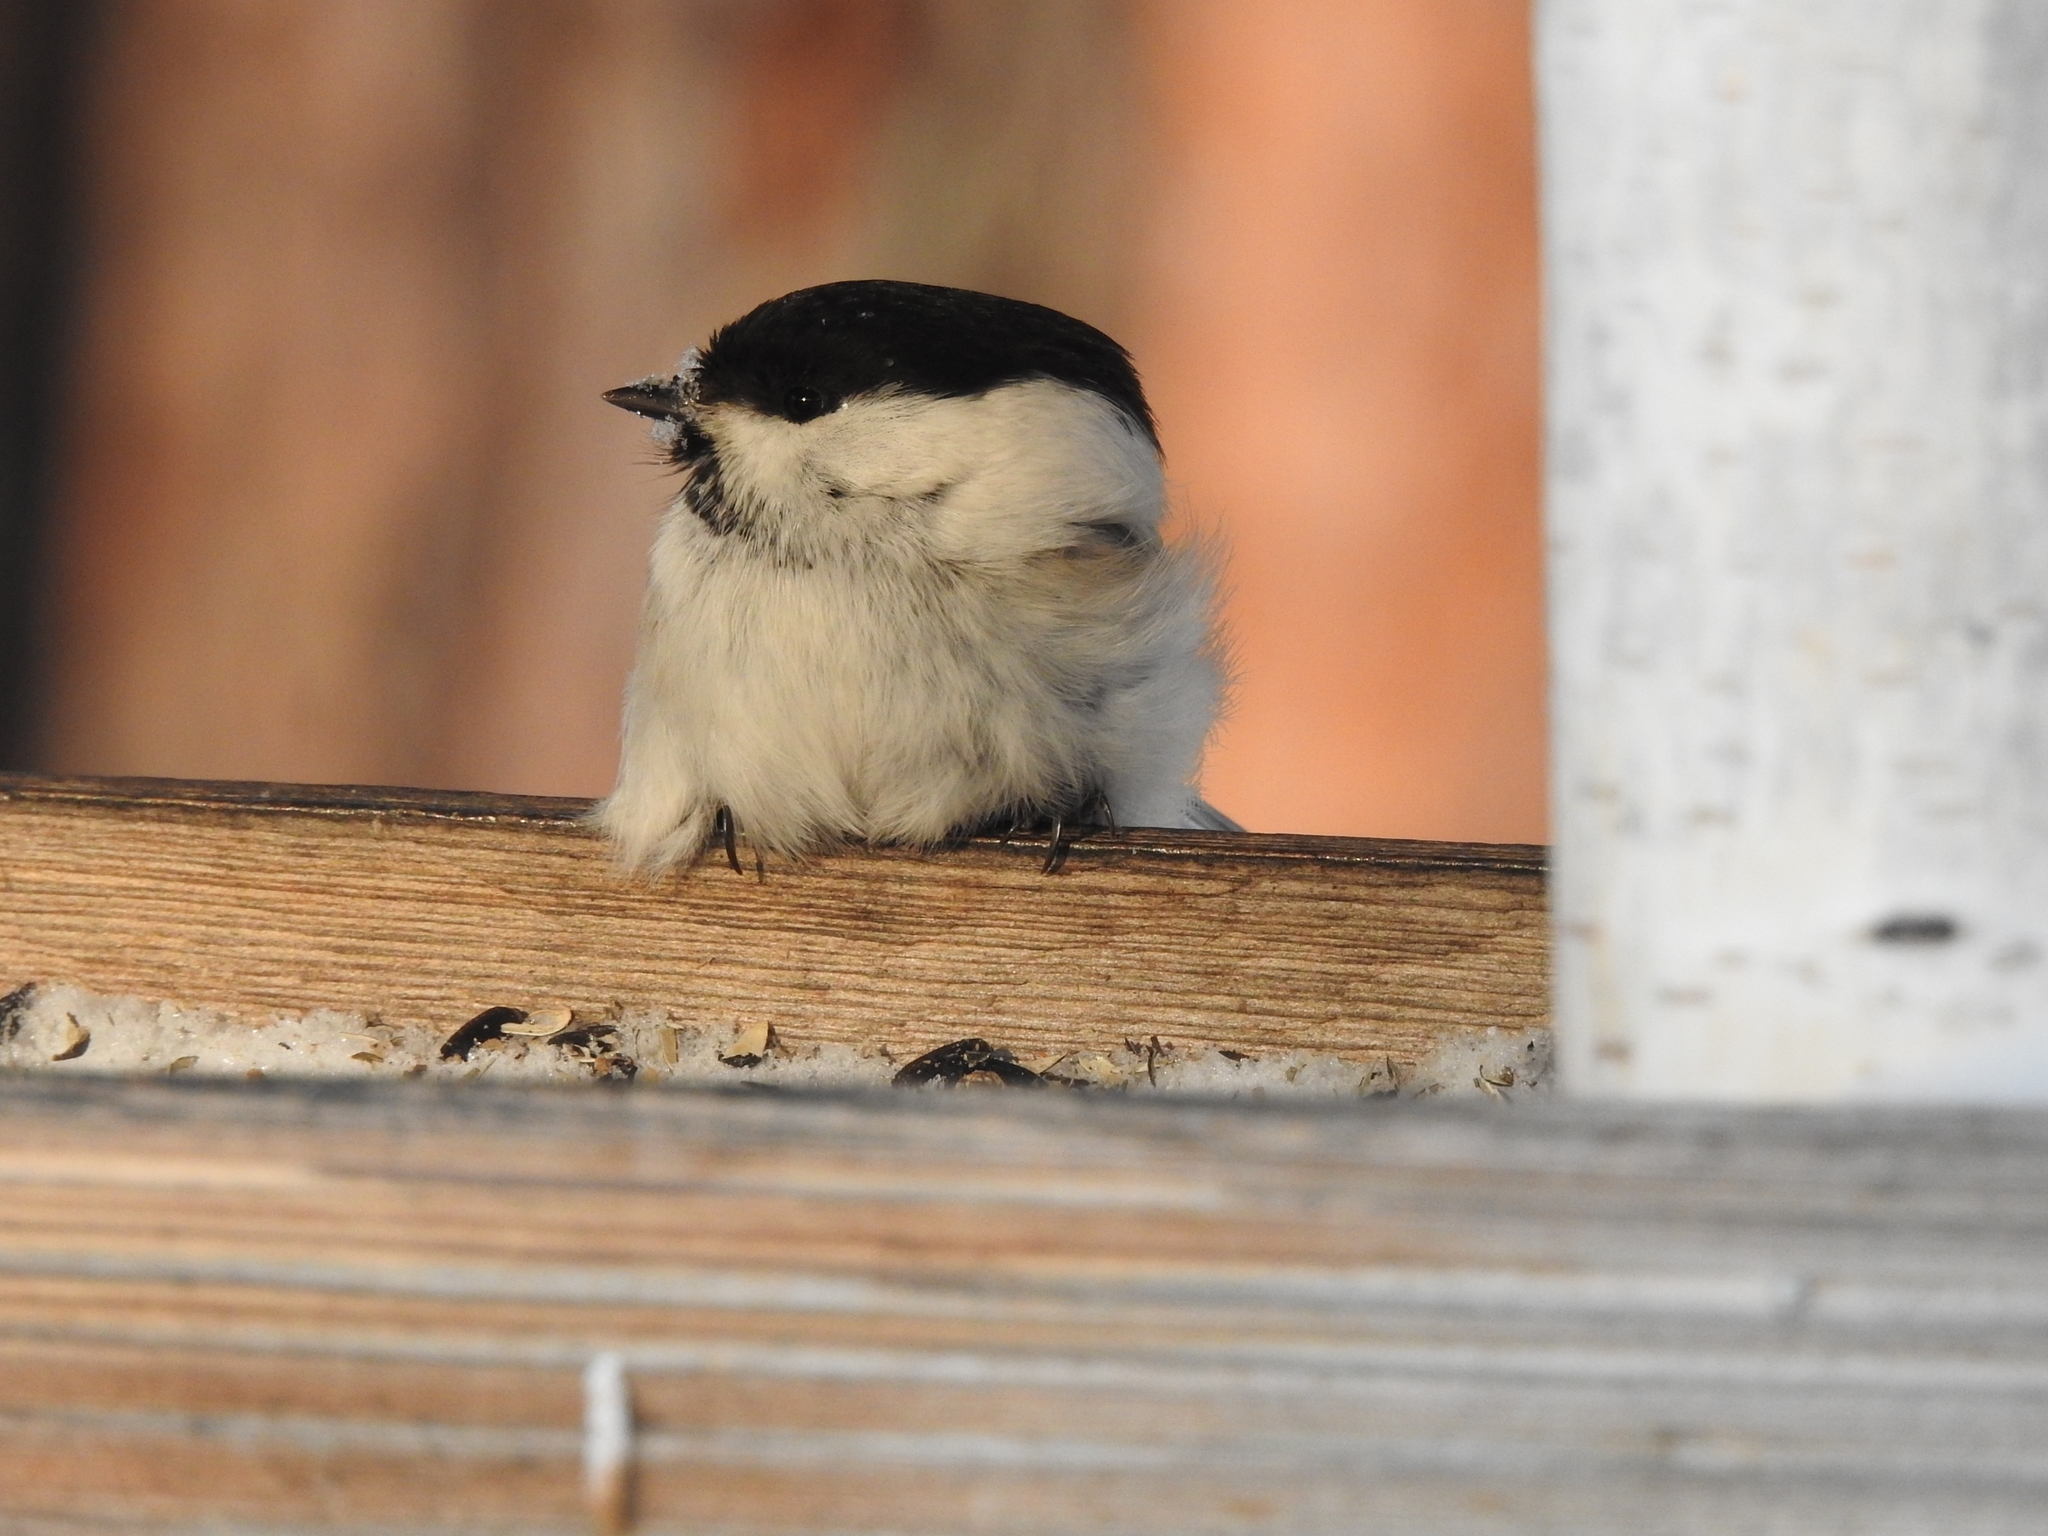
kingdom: Animalia
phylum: Chordata
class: Aves
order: Passeriformes
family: Paridae
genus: Poecile
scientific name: Poecile montanus
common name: Willow tit
